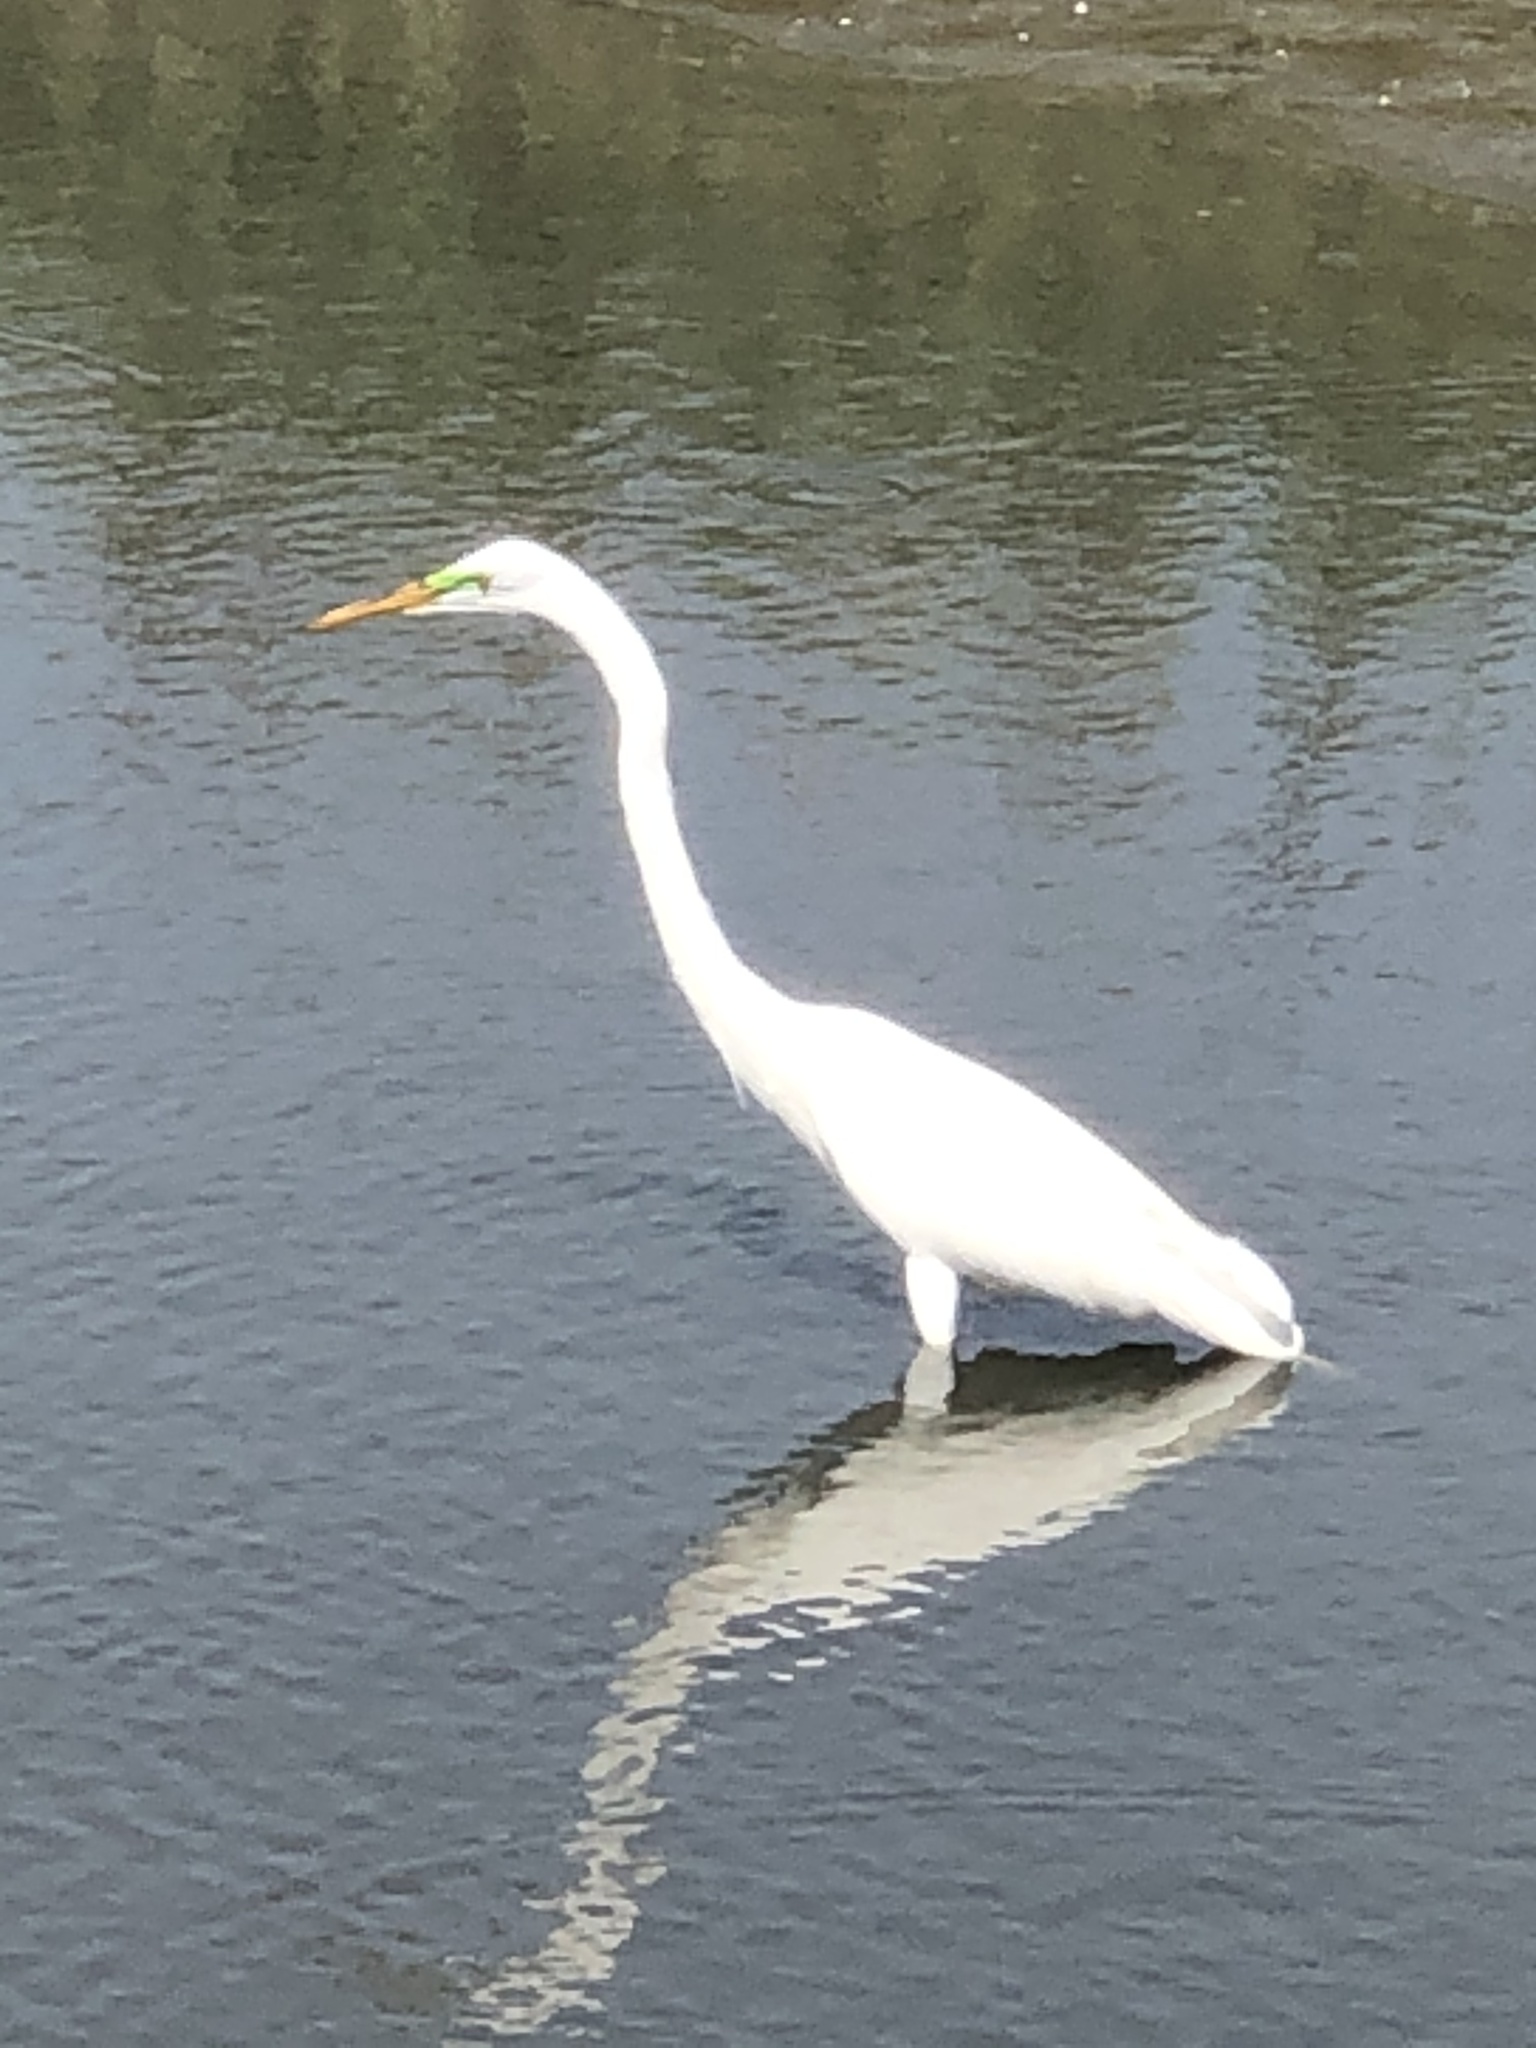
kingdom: Animalia
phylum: Chordata
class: Aves
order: Pelecaniformes
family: Ardeidae
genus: Ardea
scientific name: Ardea alba
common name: Great egret
